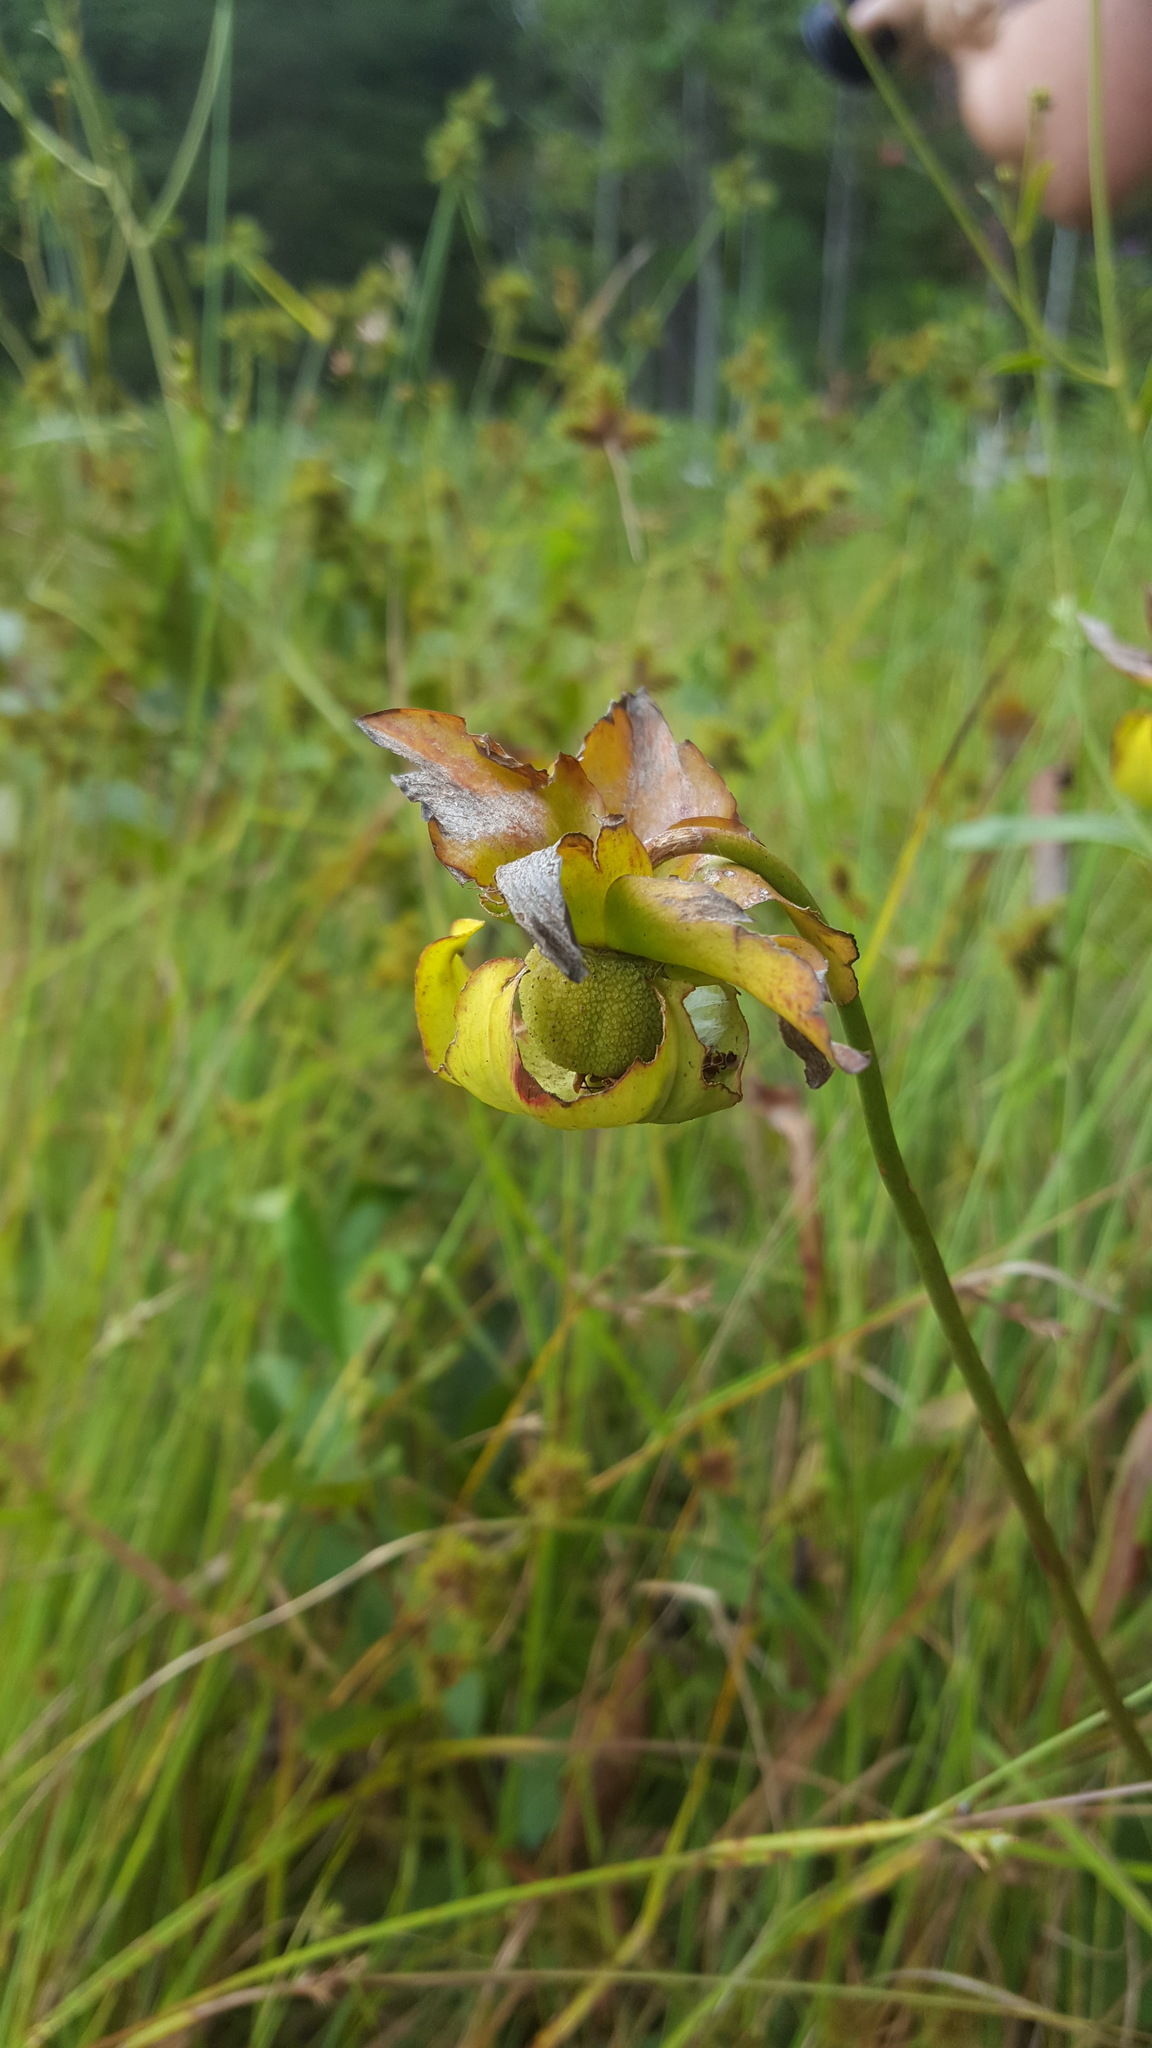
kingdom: Plantae
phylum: Tracheophyta
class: Magnoliopsida
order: Ericales
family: Sarraceniaceae
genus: Sarracenia
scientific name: Sarracenia jonesii
